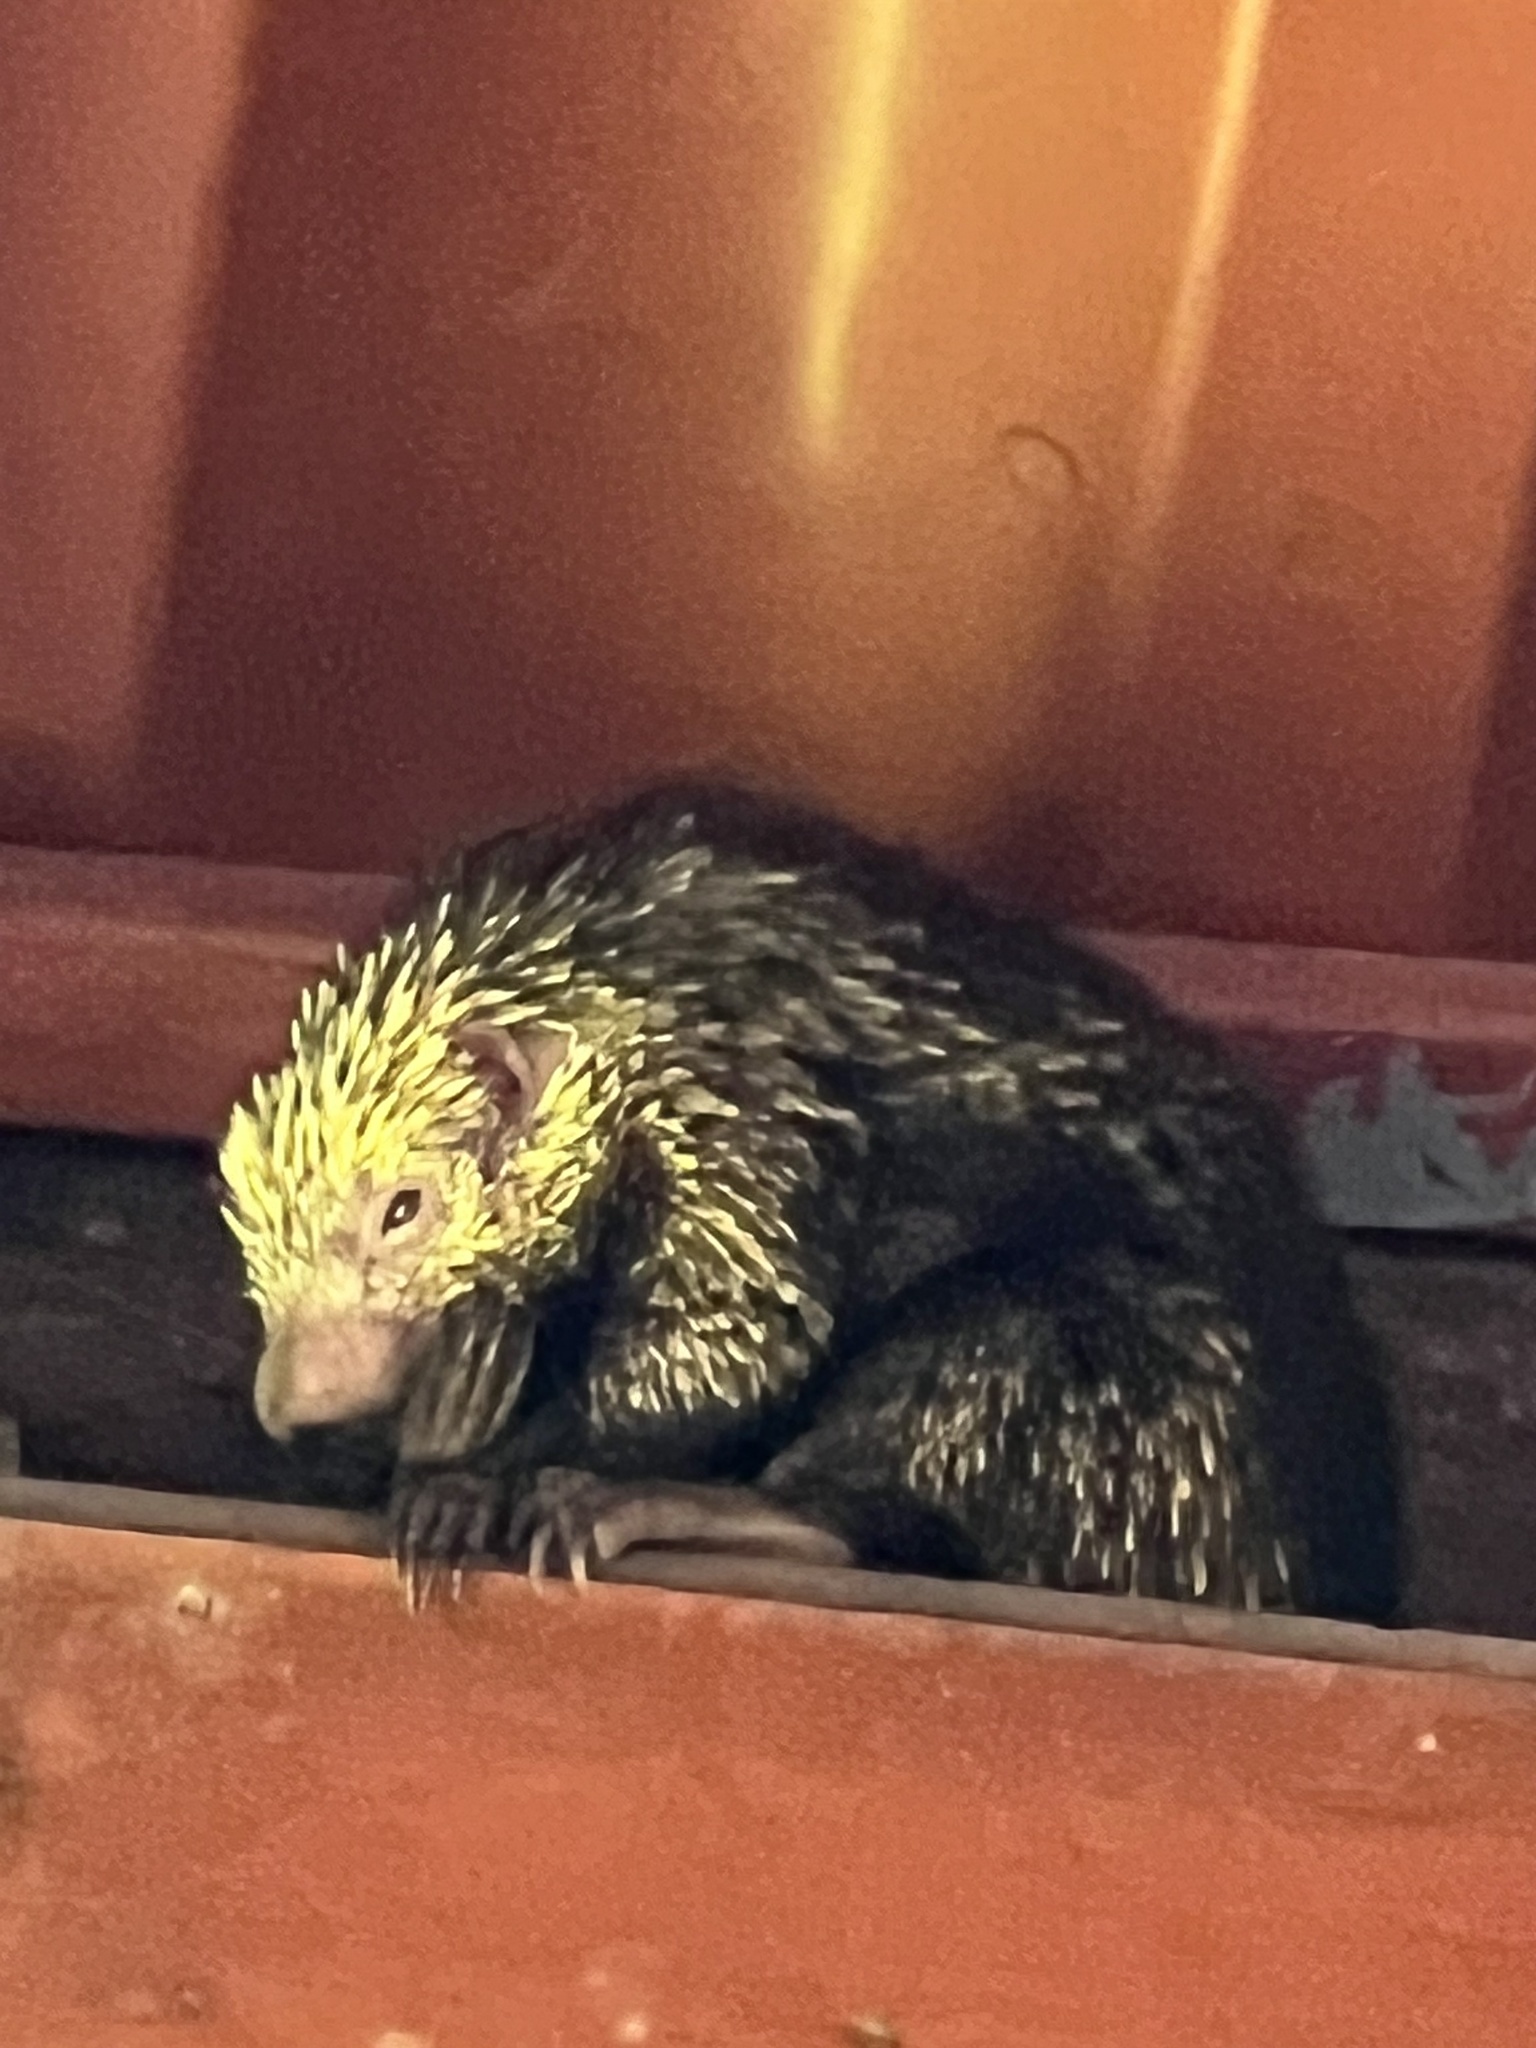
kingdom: Animalia
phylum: Chordata
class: Mammalia
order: Rodentia
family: Erethizontidae
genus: Sphiggurus
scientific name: Sphiggurus mexicanus
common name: Mexican hairy dwarf porcupine
